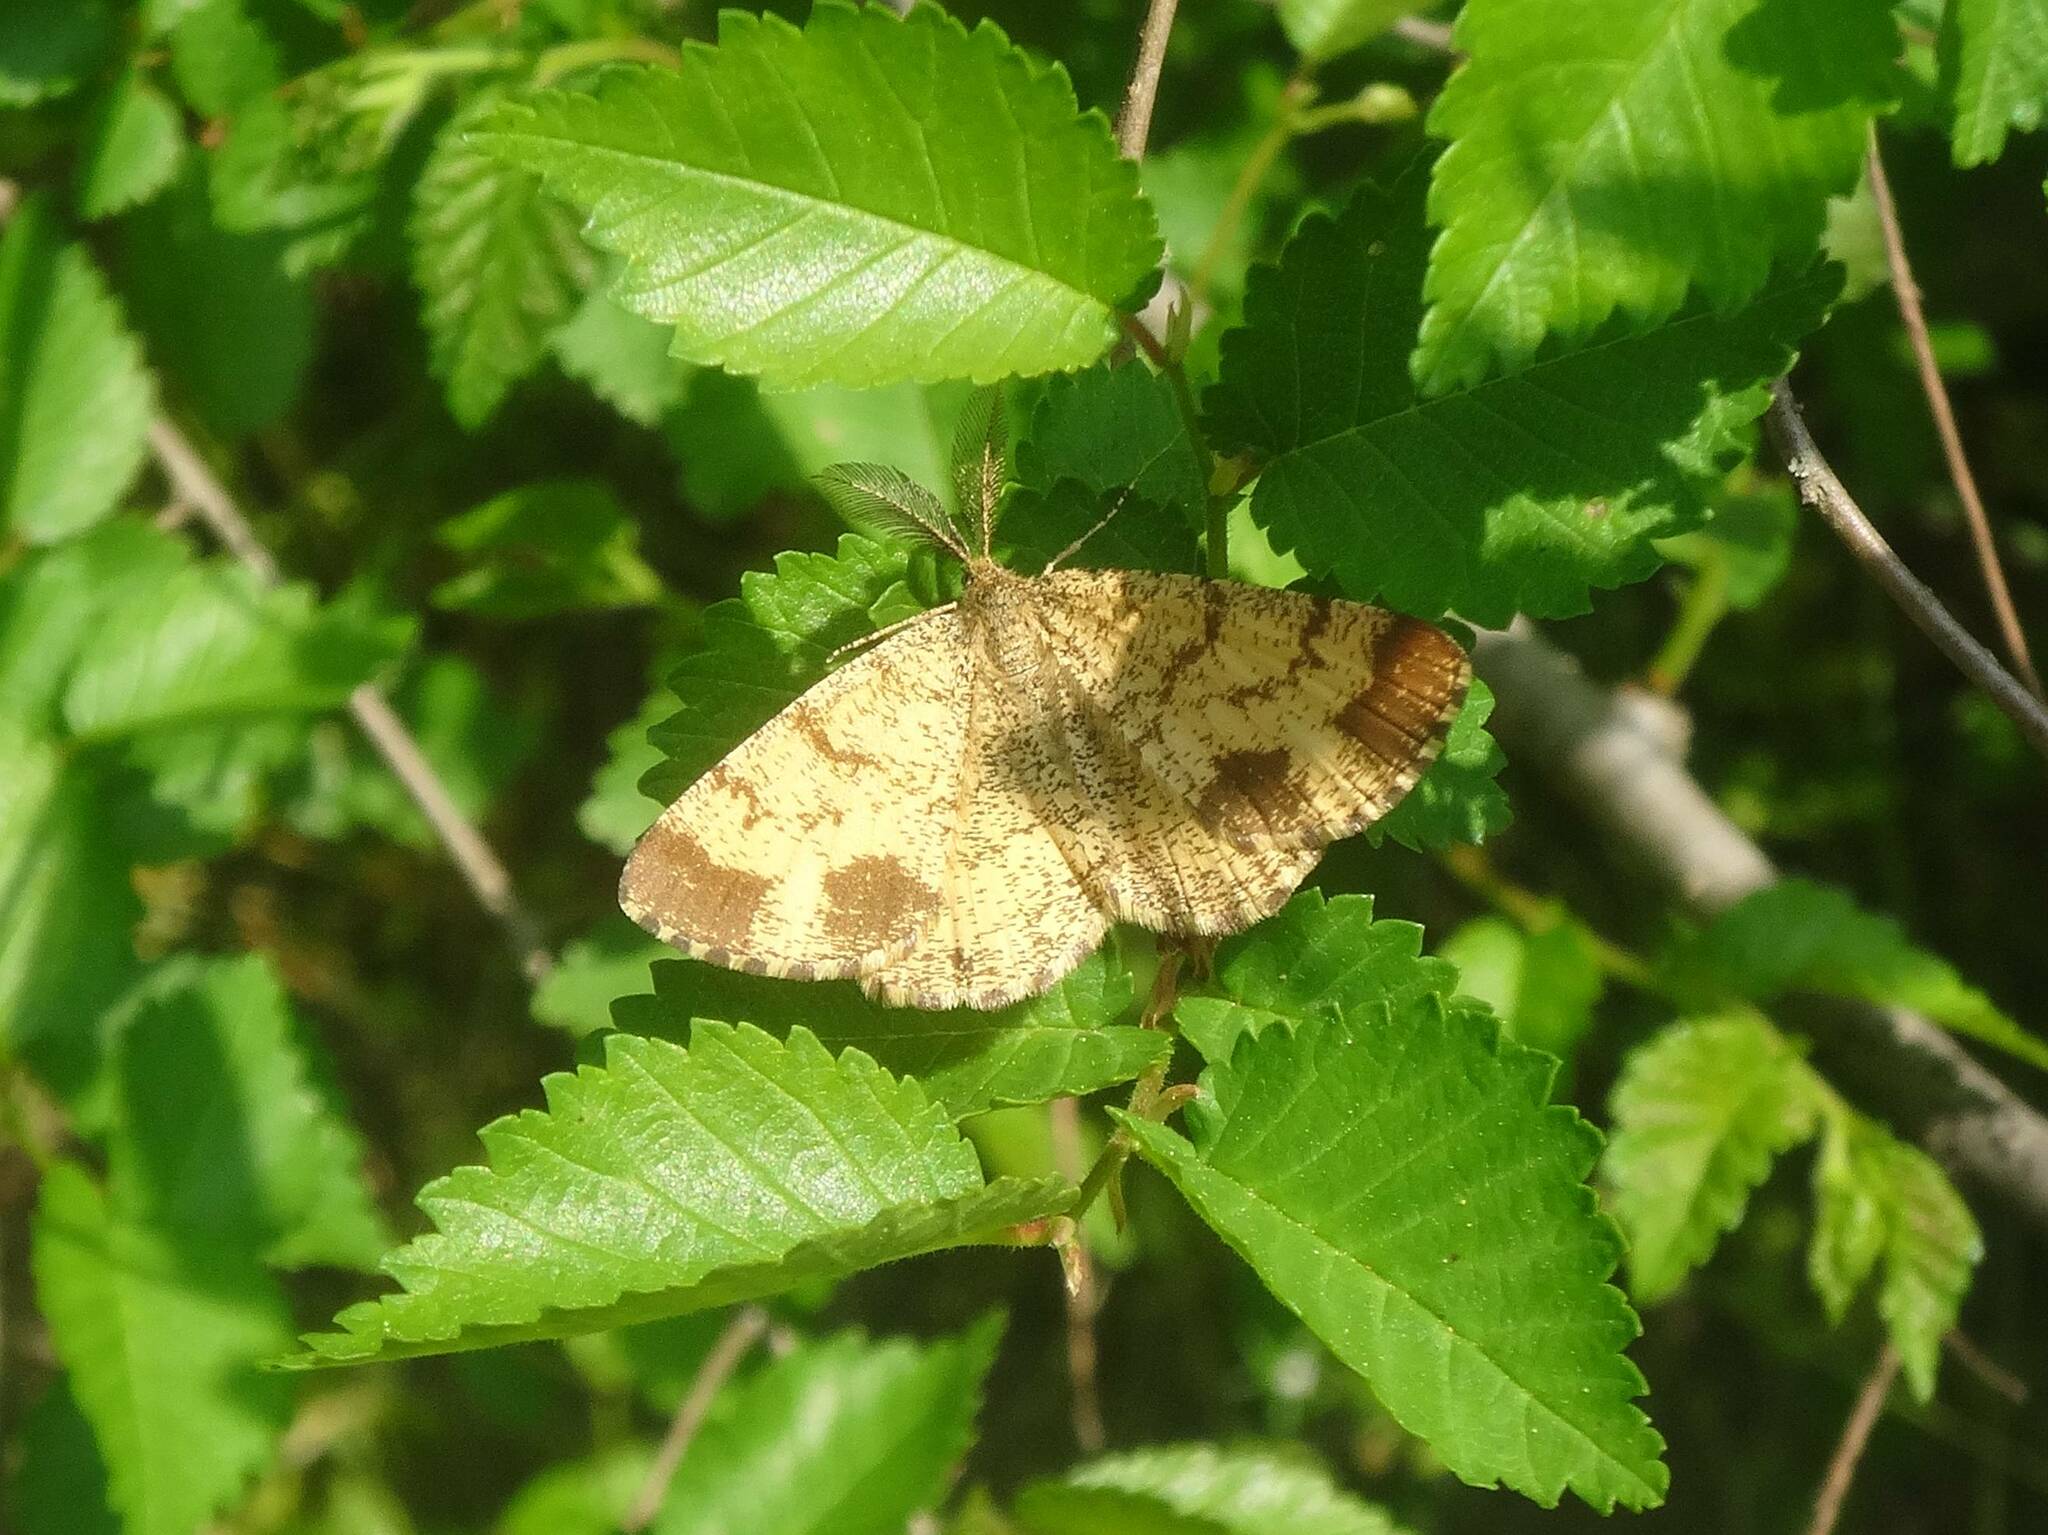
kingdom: Animalia
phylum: Arthropoda
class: Insecta
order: Lepidoptera
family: Geometridae
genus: Ematurga
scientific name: Ematurga atomaria
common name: Common heath
